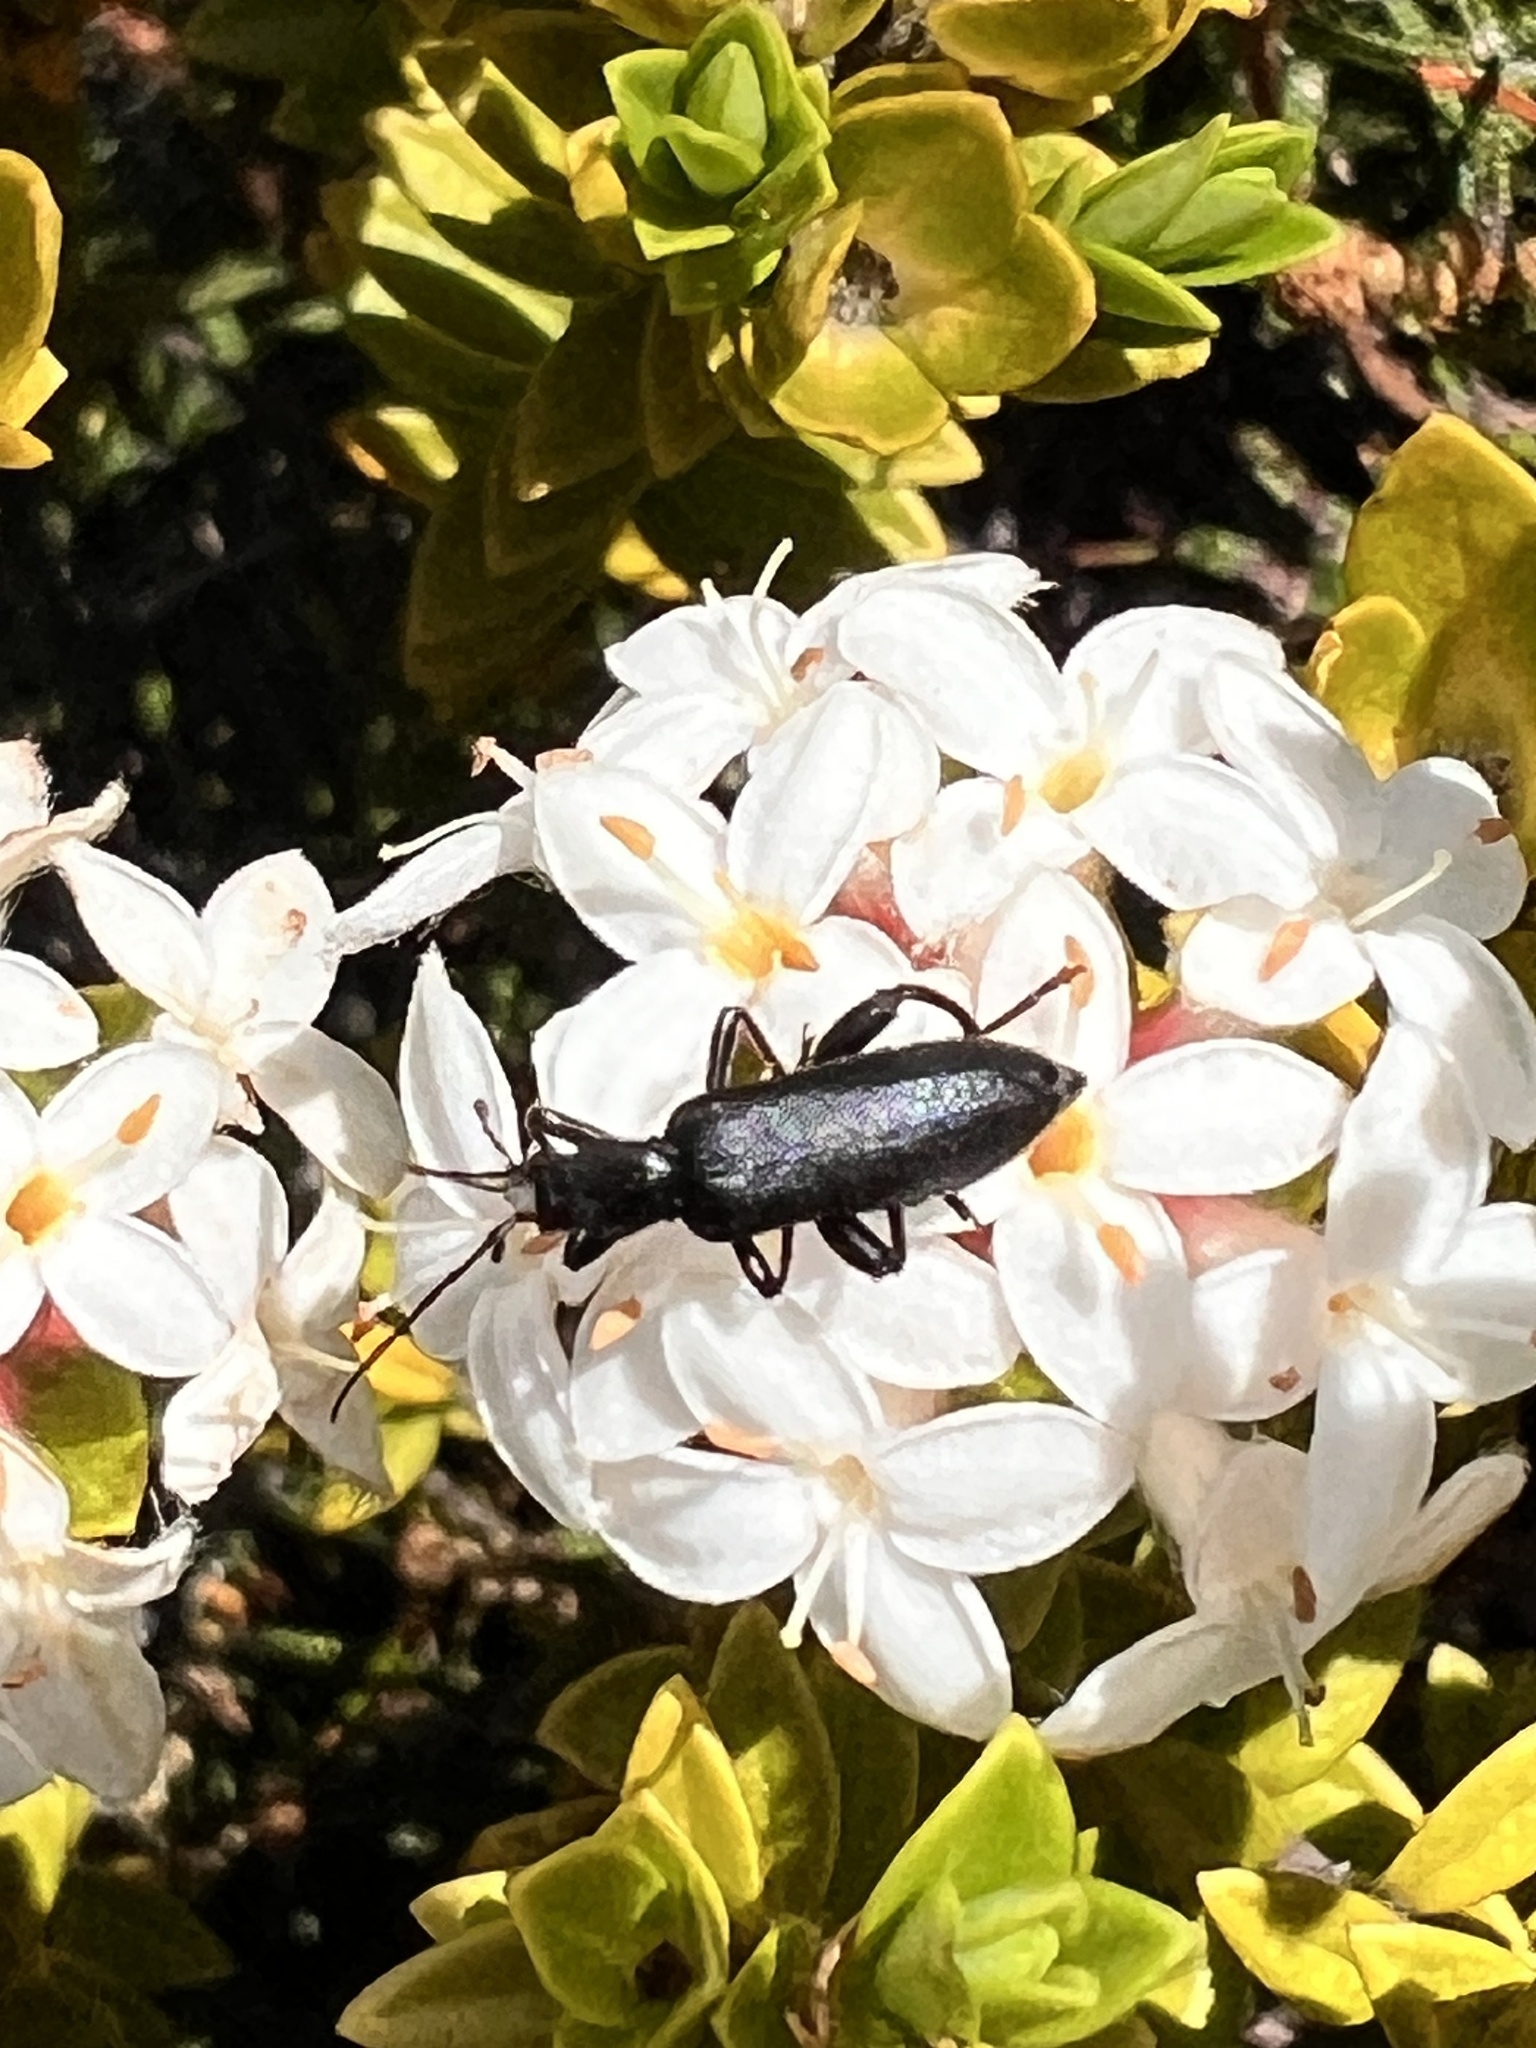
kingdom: Animalia
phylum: Arthropoda
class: Insecta
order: Coleoptera
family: Oedemeridae
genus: Selenopalpus
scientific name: Selenopalpus cyaneus
